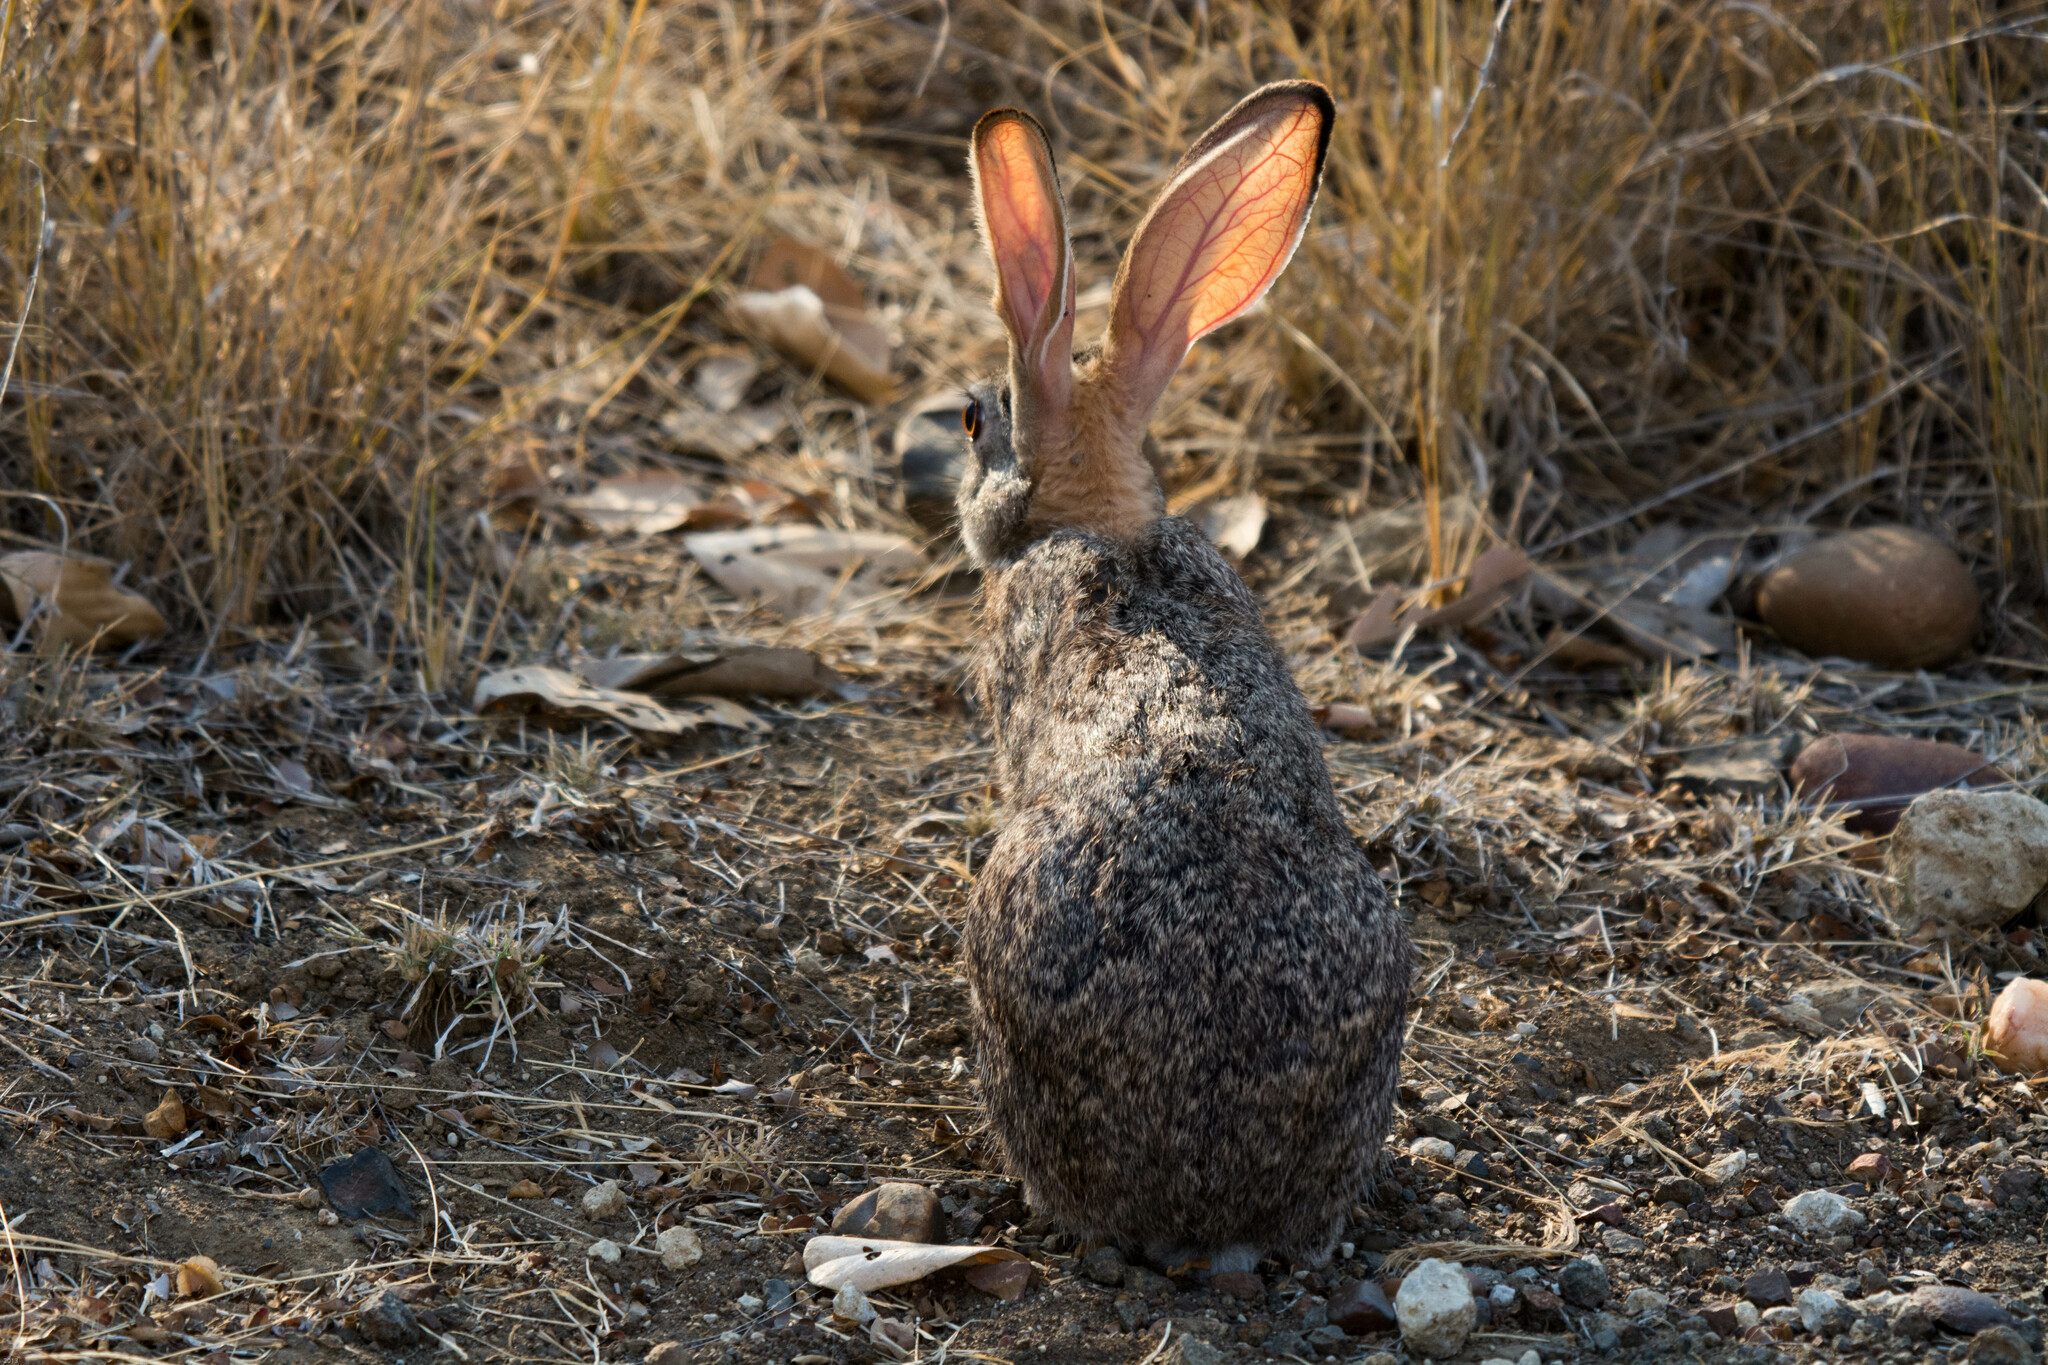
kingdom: Animalia
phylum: Chordata
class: Mammalia
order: Lagomorpha
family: Leporidae
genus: Lepus
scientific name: Lepus saxatilis
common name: Scrub hare
